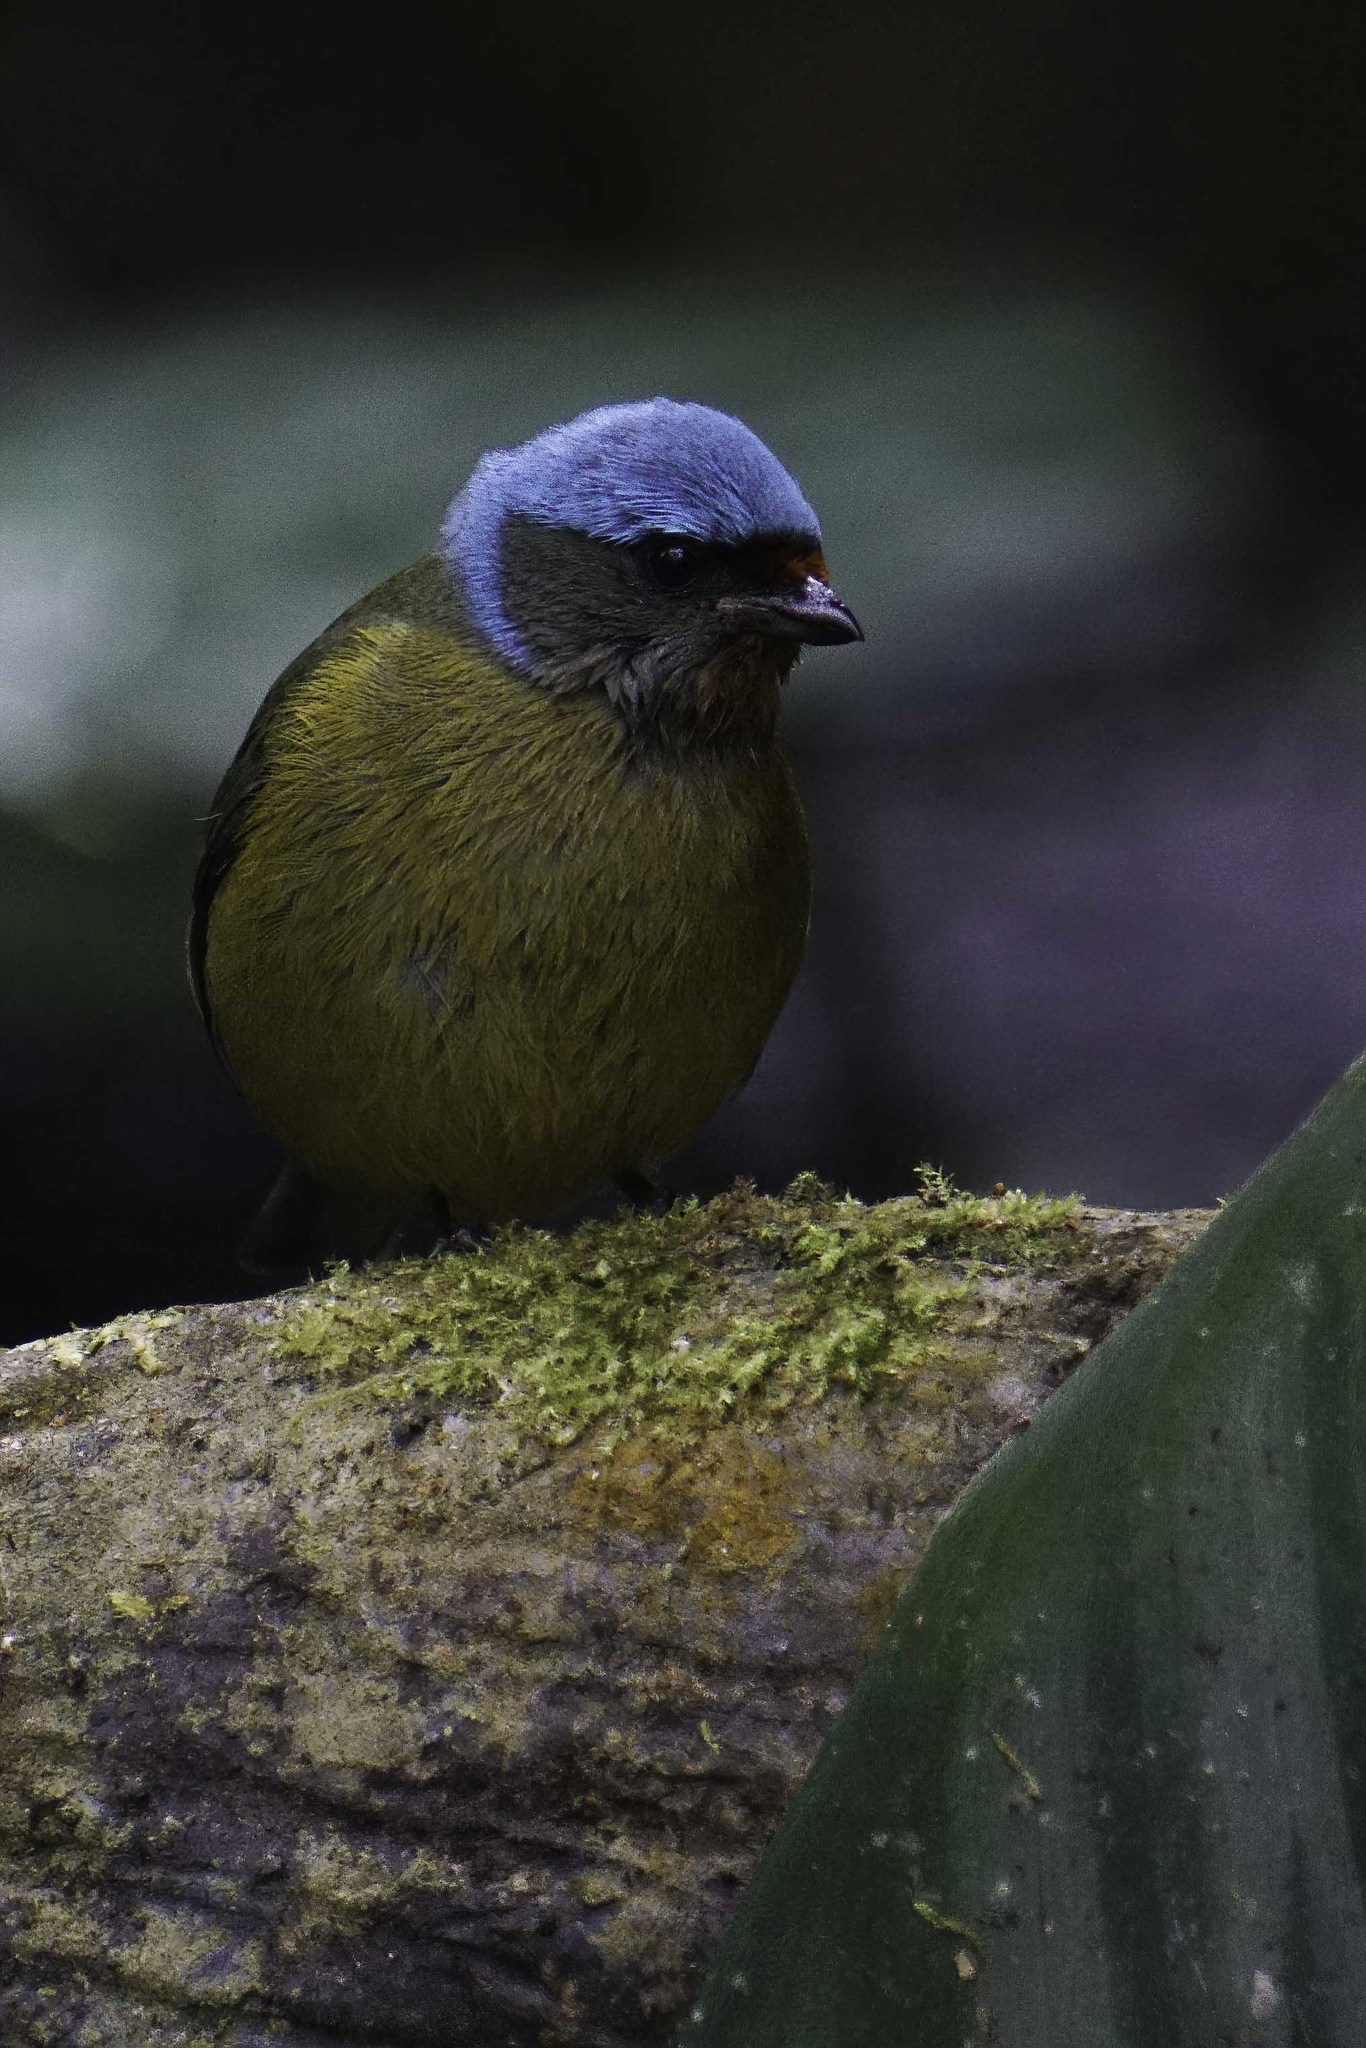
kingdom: Animalia
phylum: Chordata
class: Aves
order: Passeriformes
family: Fringillidae
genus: Euphonia
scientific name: Euphonia elegantissima
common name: Elegant euphonia
